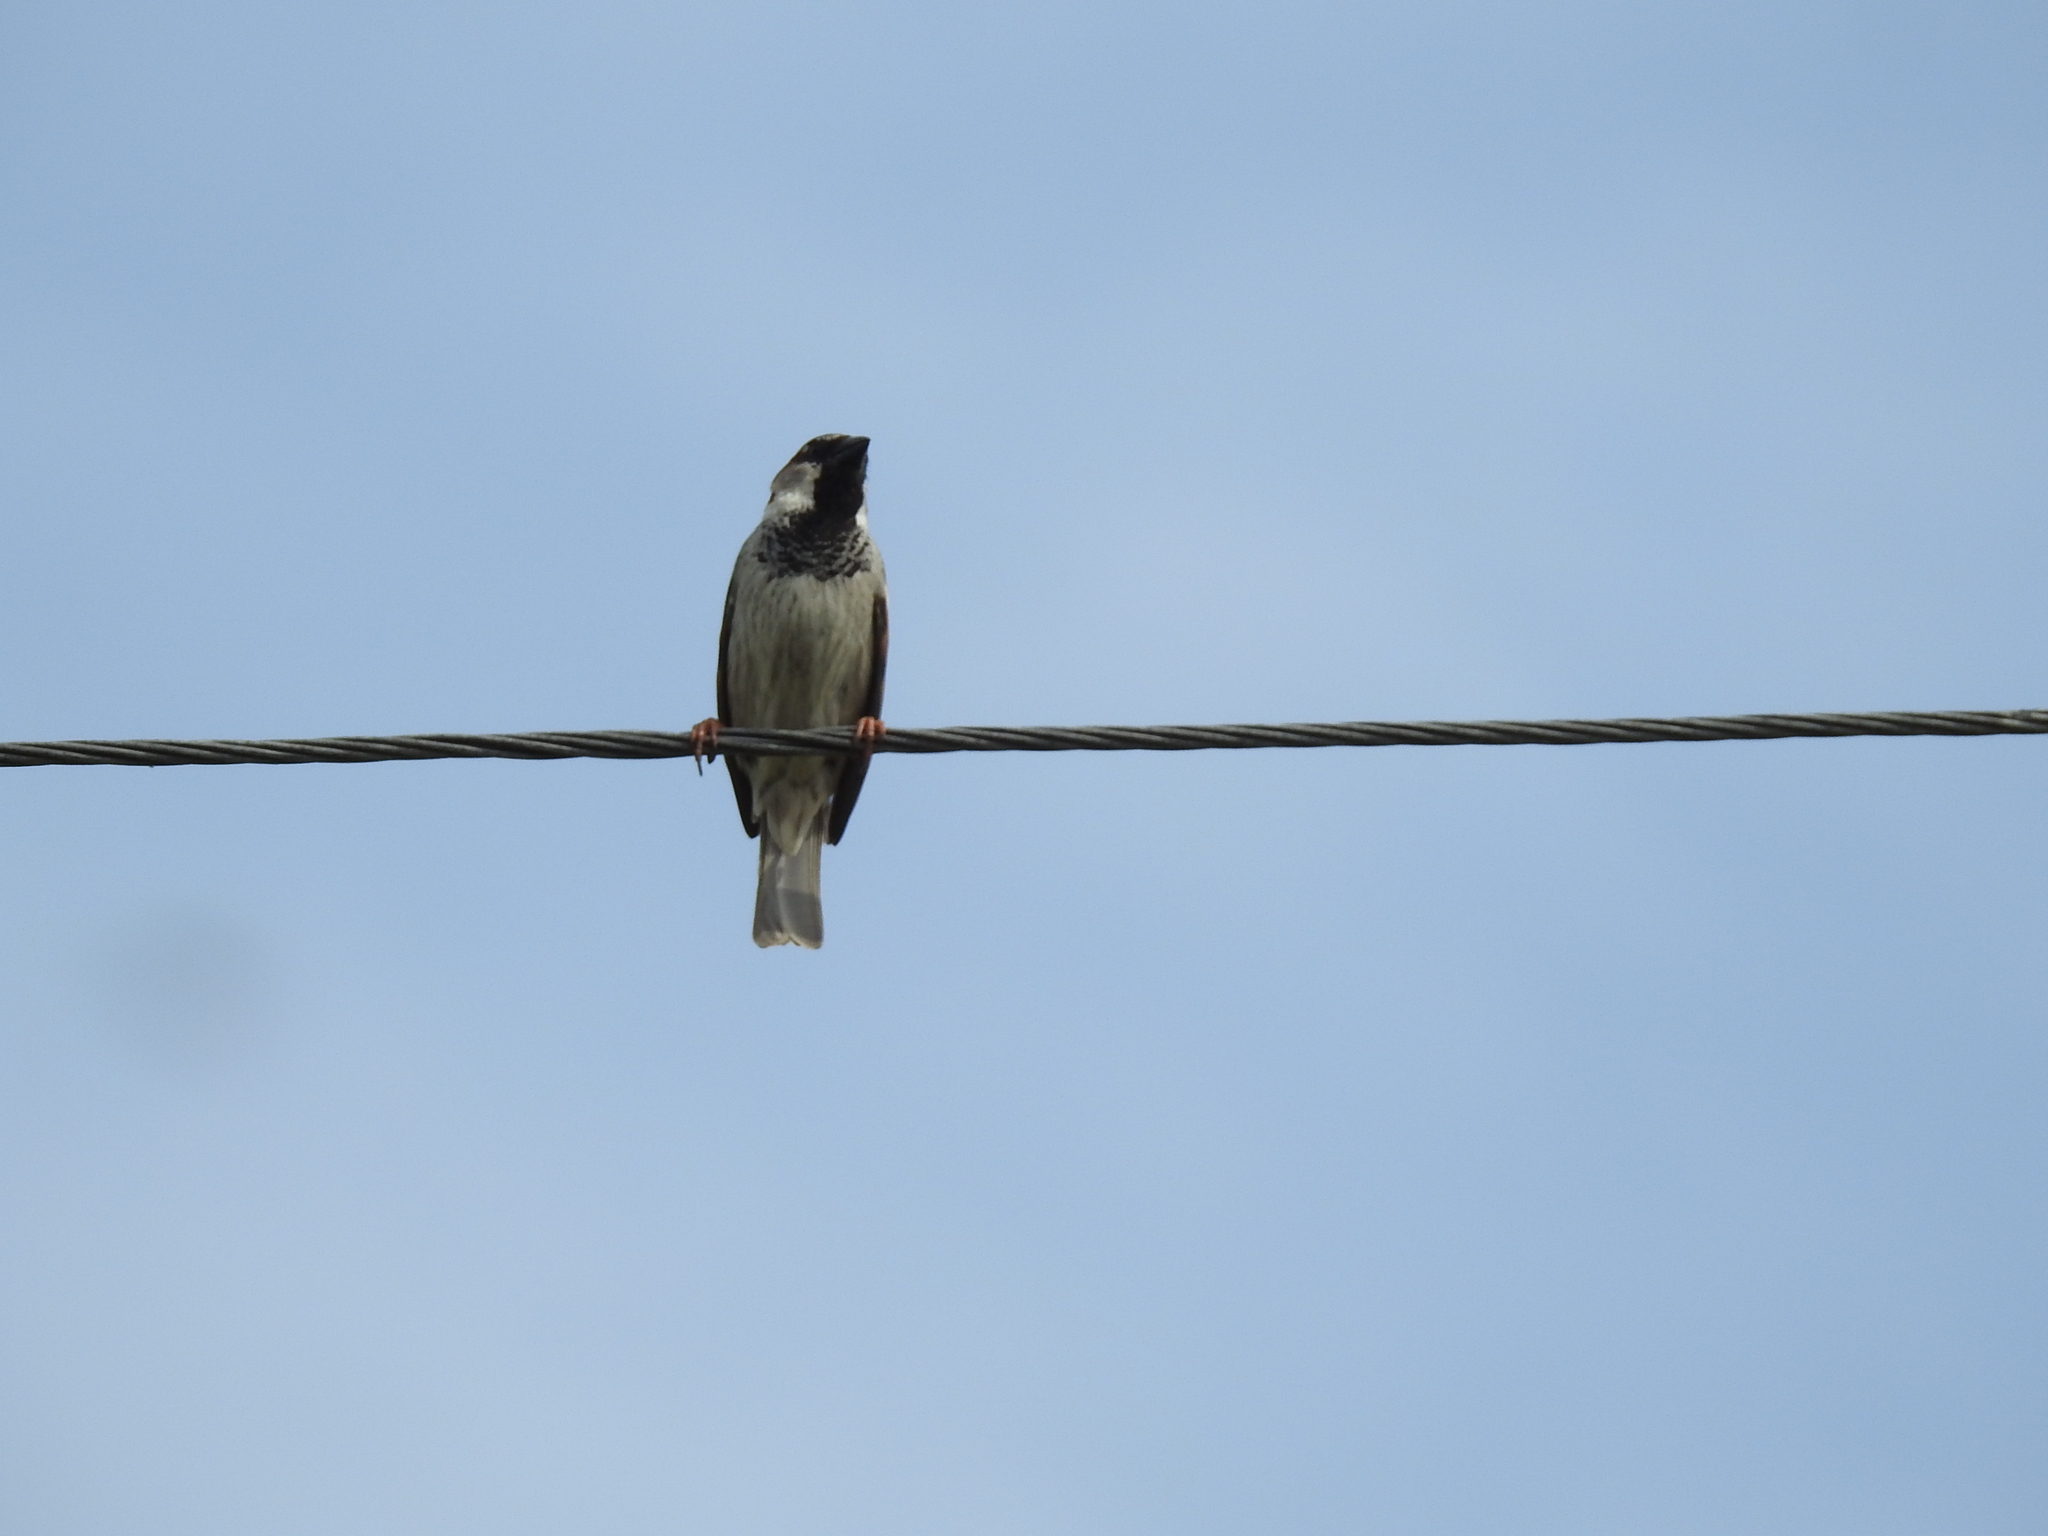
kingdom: Animalia
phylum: Chordata
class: Aves
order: Passeriformes
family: Passeridae
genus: Passer
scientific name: Passer domesticus
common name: House sparrow
